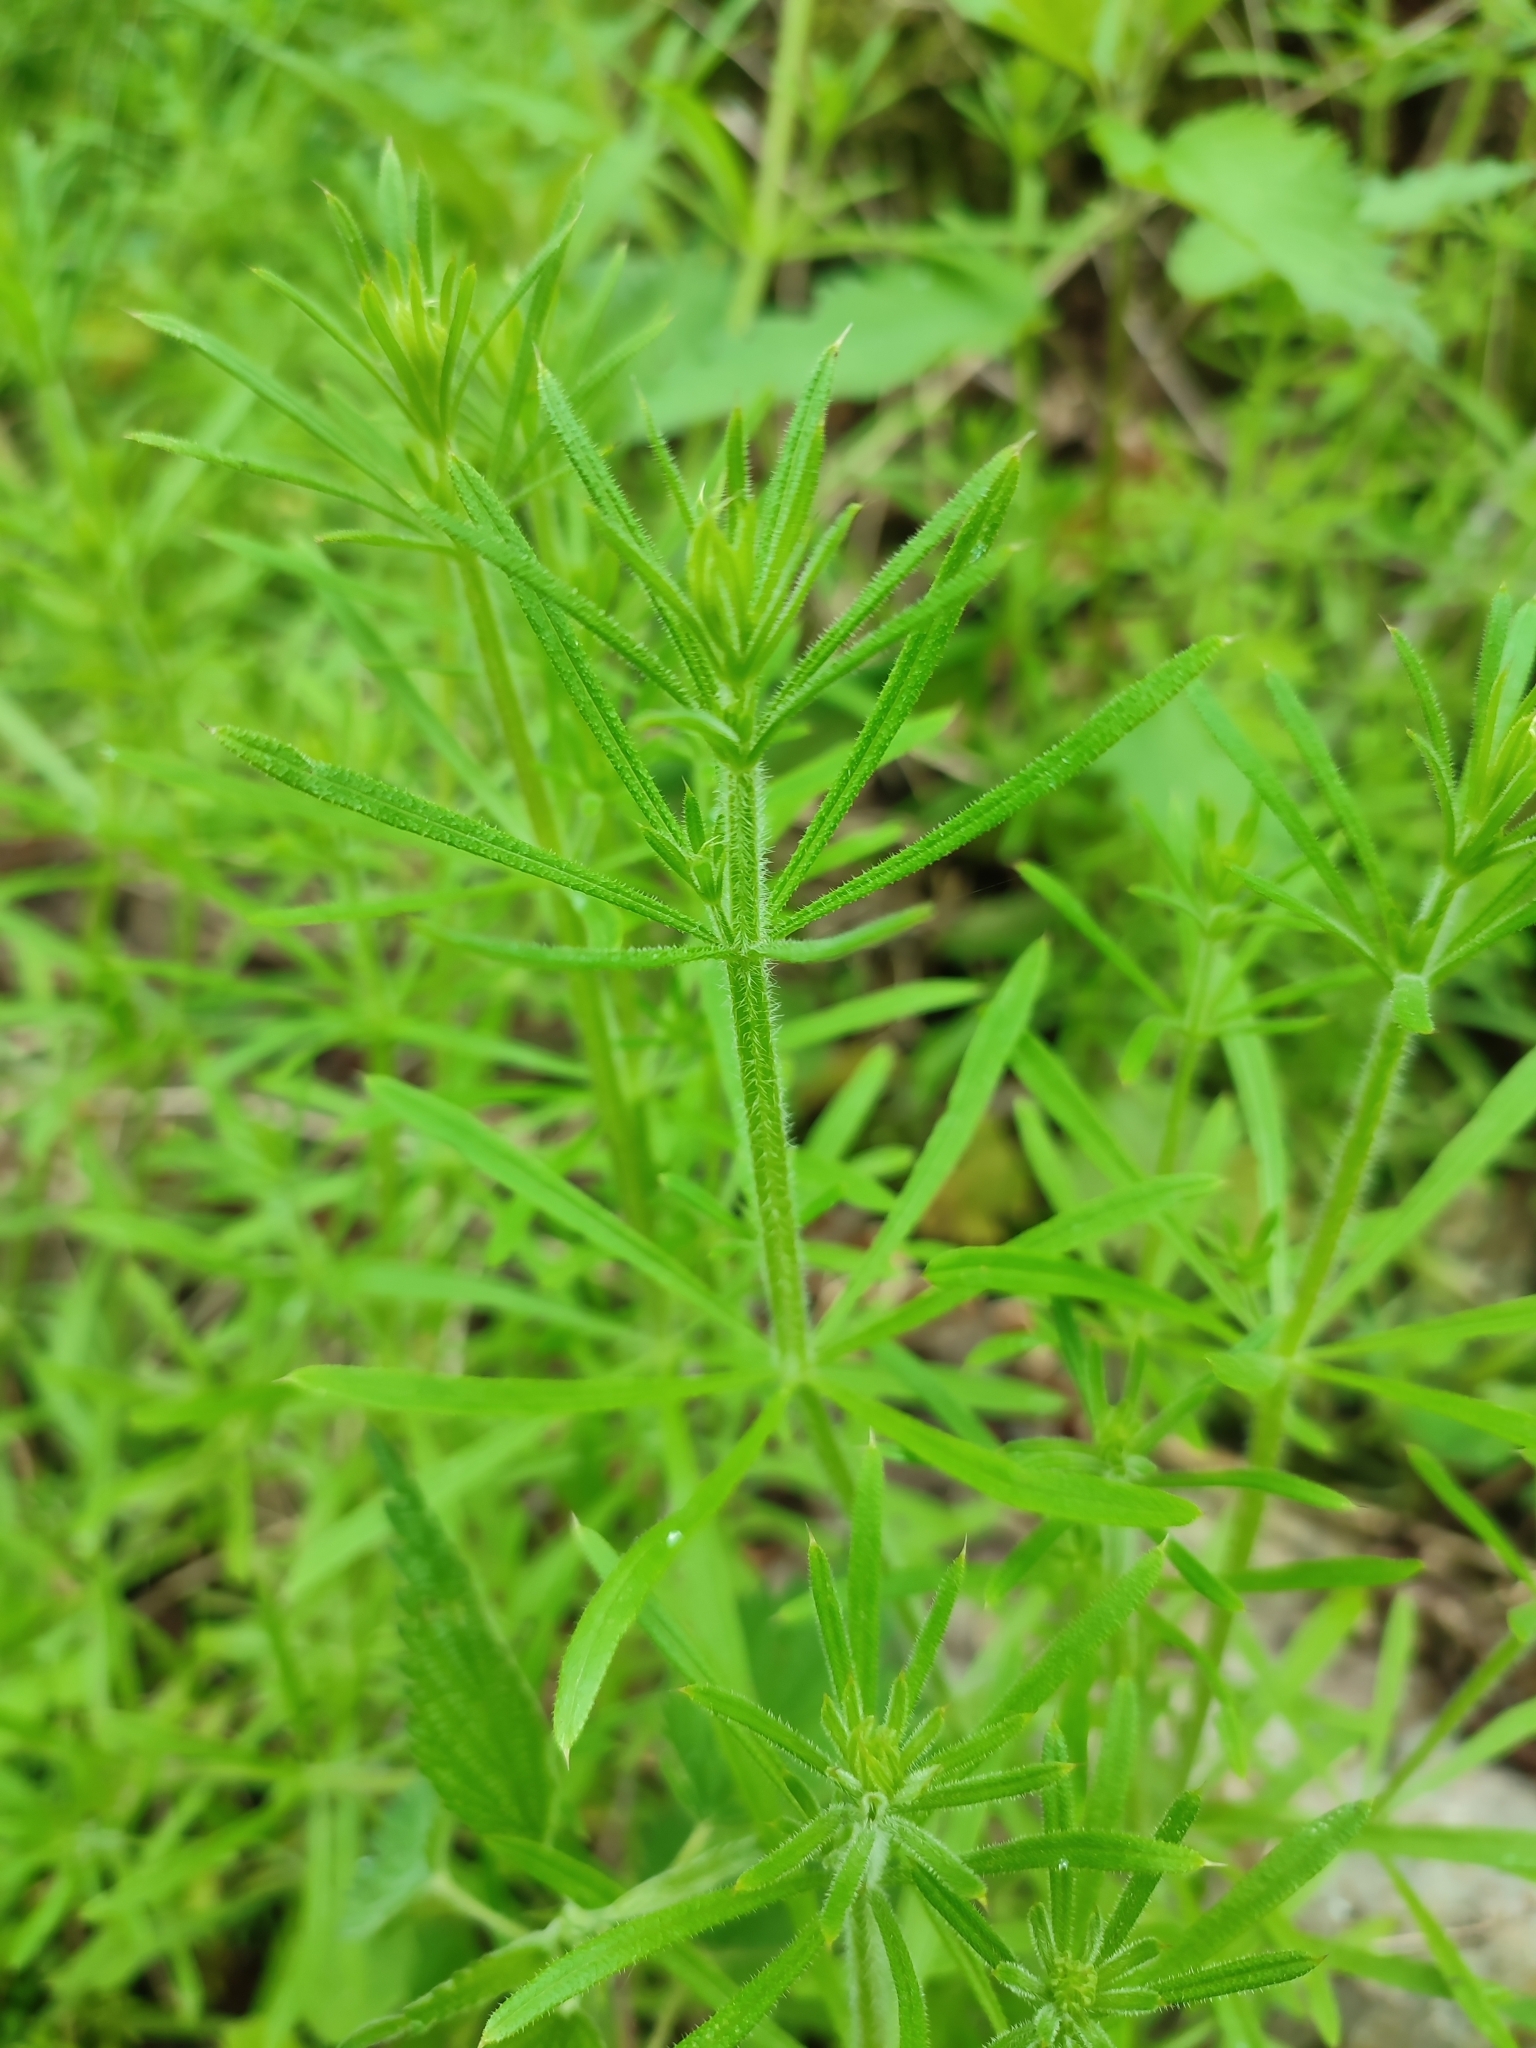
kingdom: Plantae
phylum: Tracheophyta
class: Magnoliopsida
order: Gentianales
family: Rubiaceae
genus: Galium
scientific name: Galium aparine
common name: Cleavers
